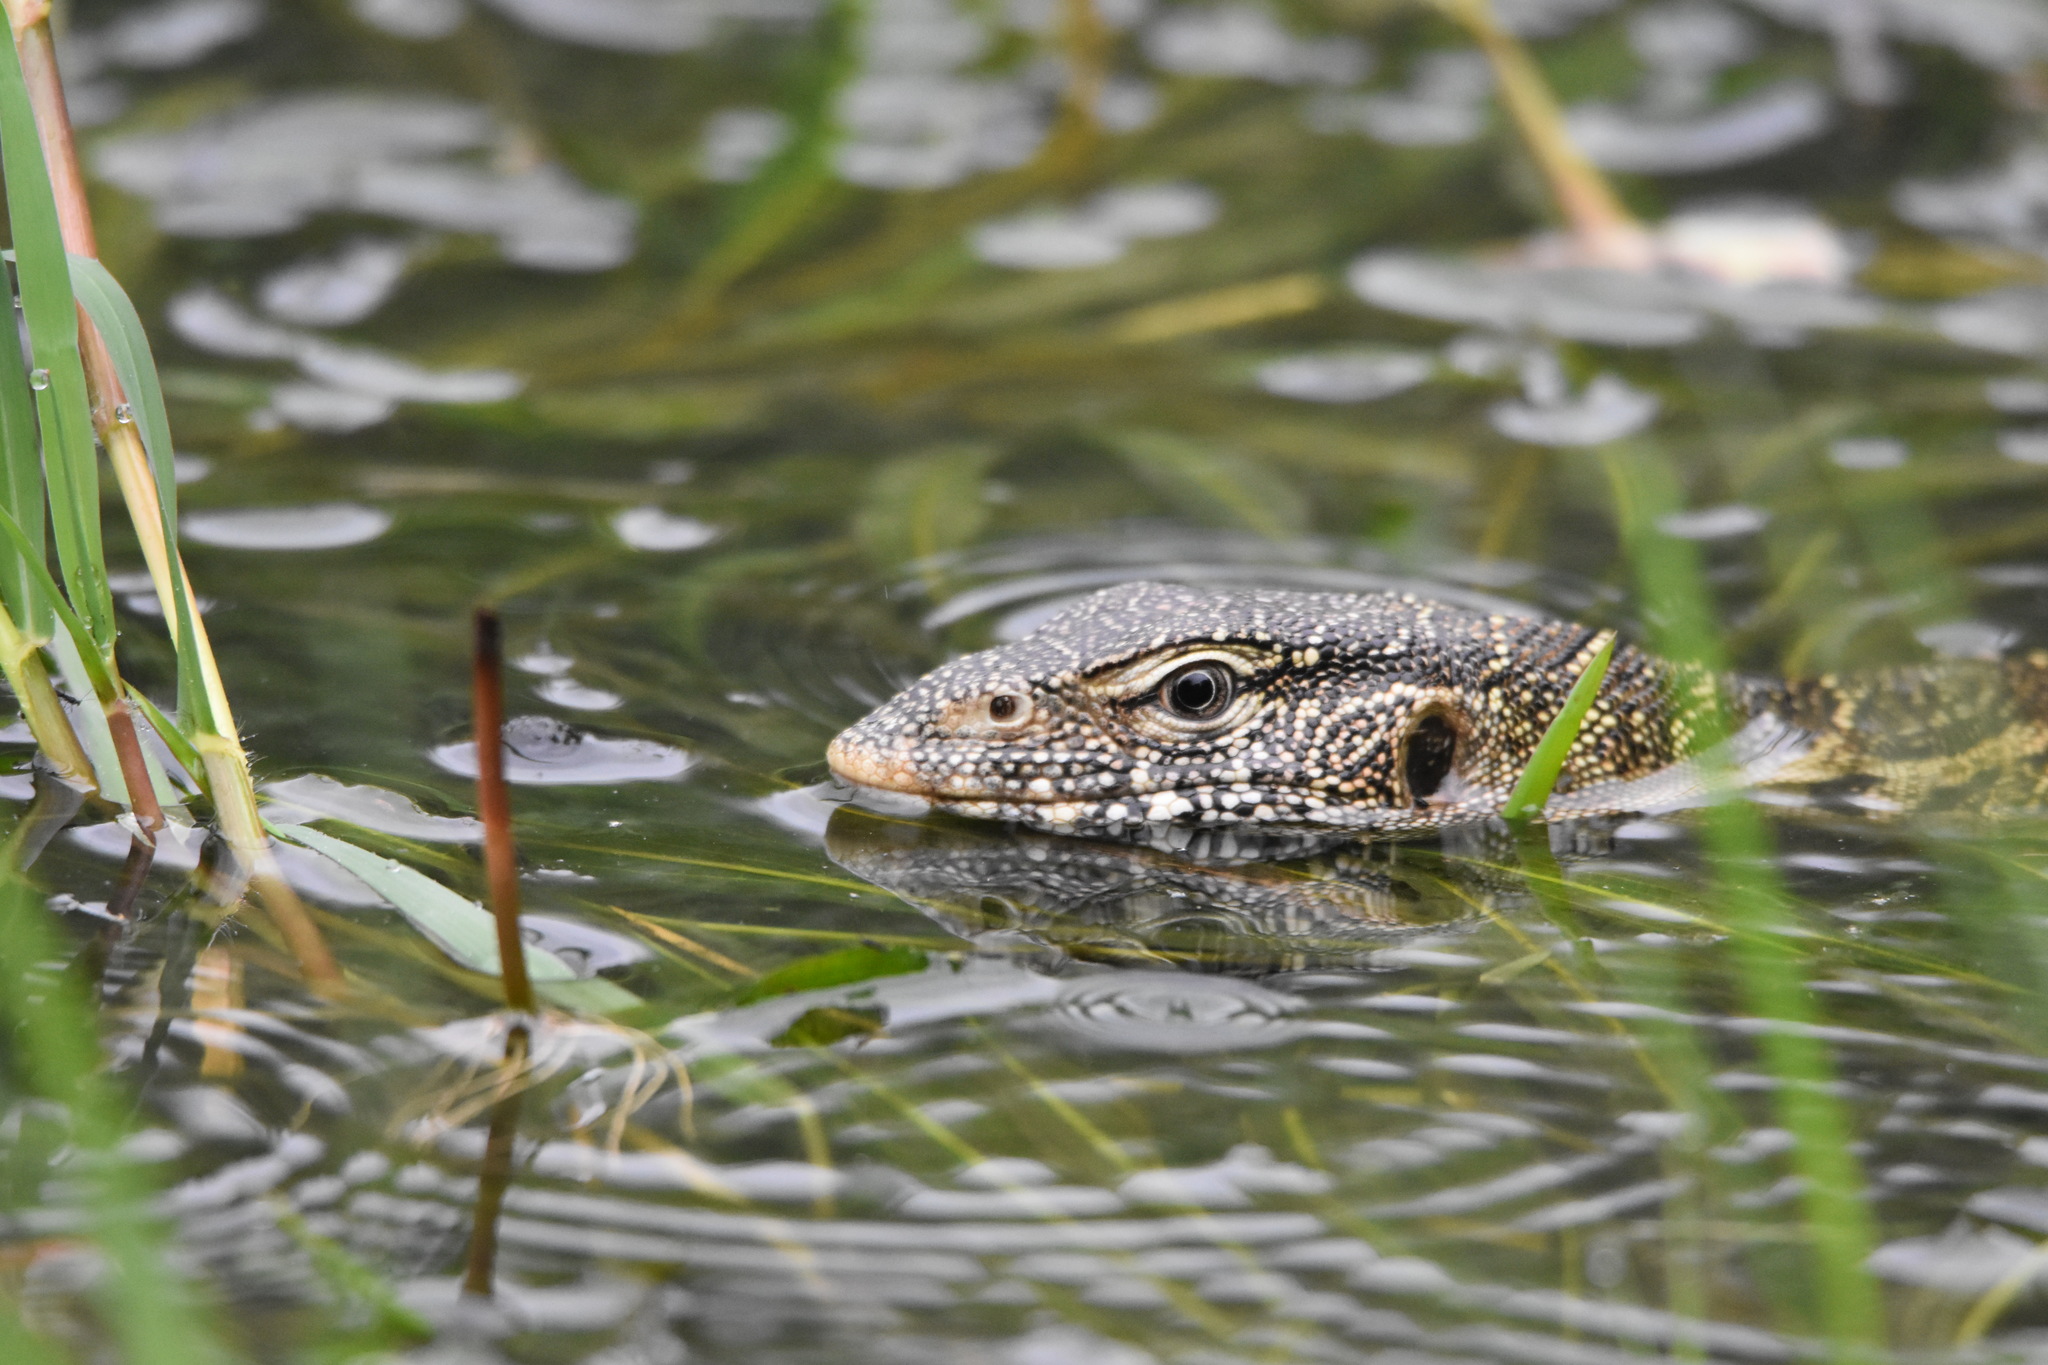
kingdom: Animalia
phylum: Chordata
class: Squamata
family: Varanidae
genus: Varanus
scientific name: Varanus niloticus
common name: Nile monitor
